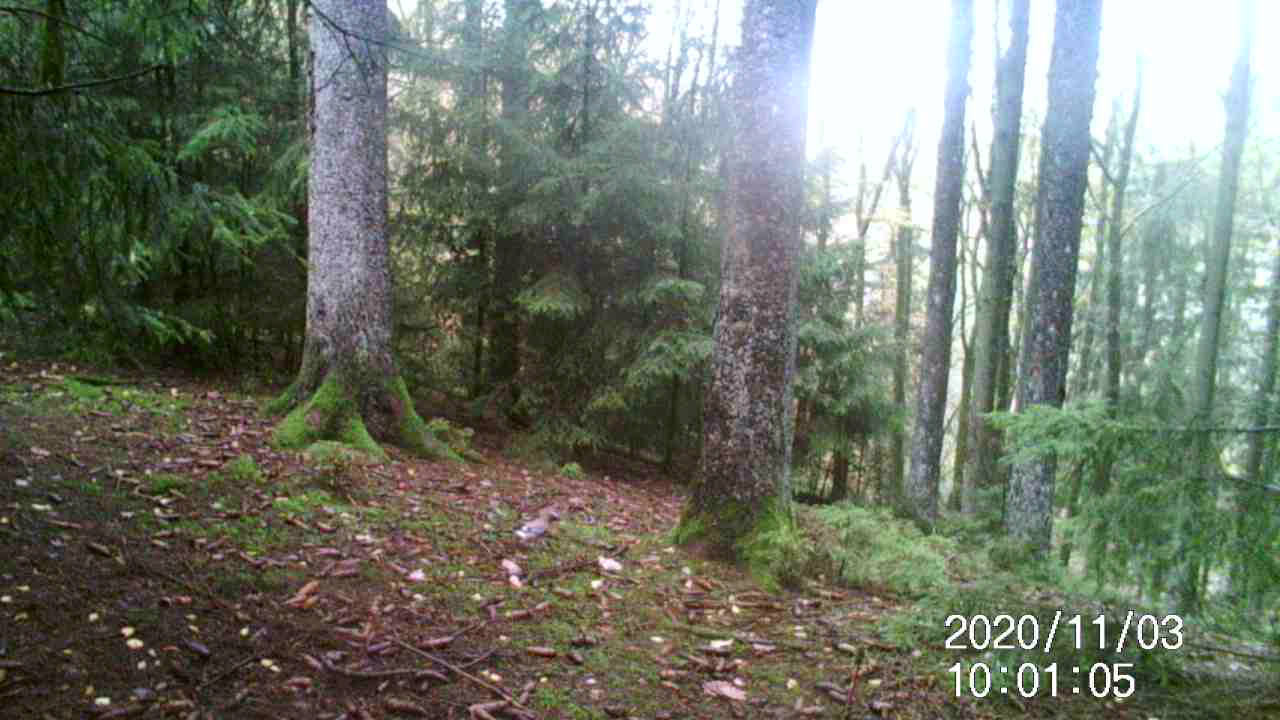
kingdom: Animalia
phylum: Chordata
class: Aves
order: Passeriformes
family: Corvidae
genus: Garrulus
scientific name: Garrulus glandarius
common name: Eurasian jay
